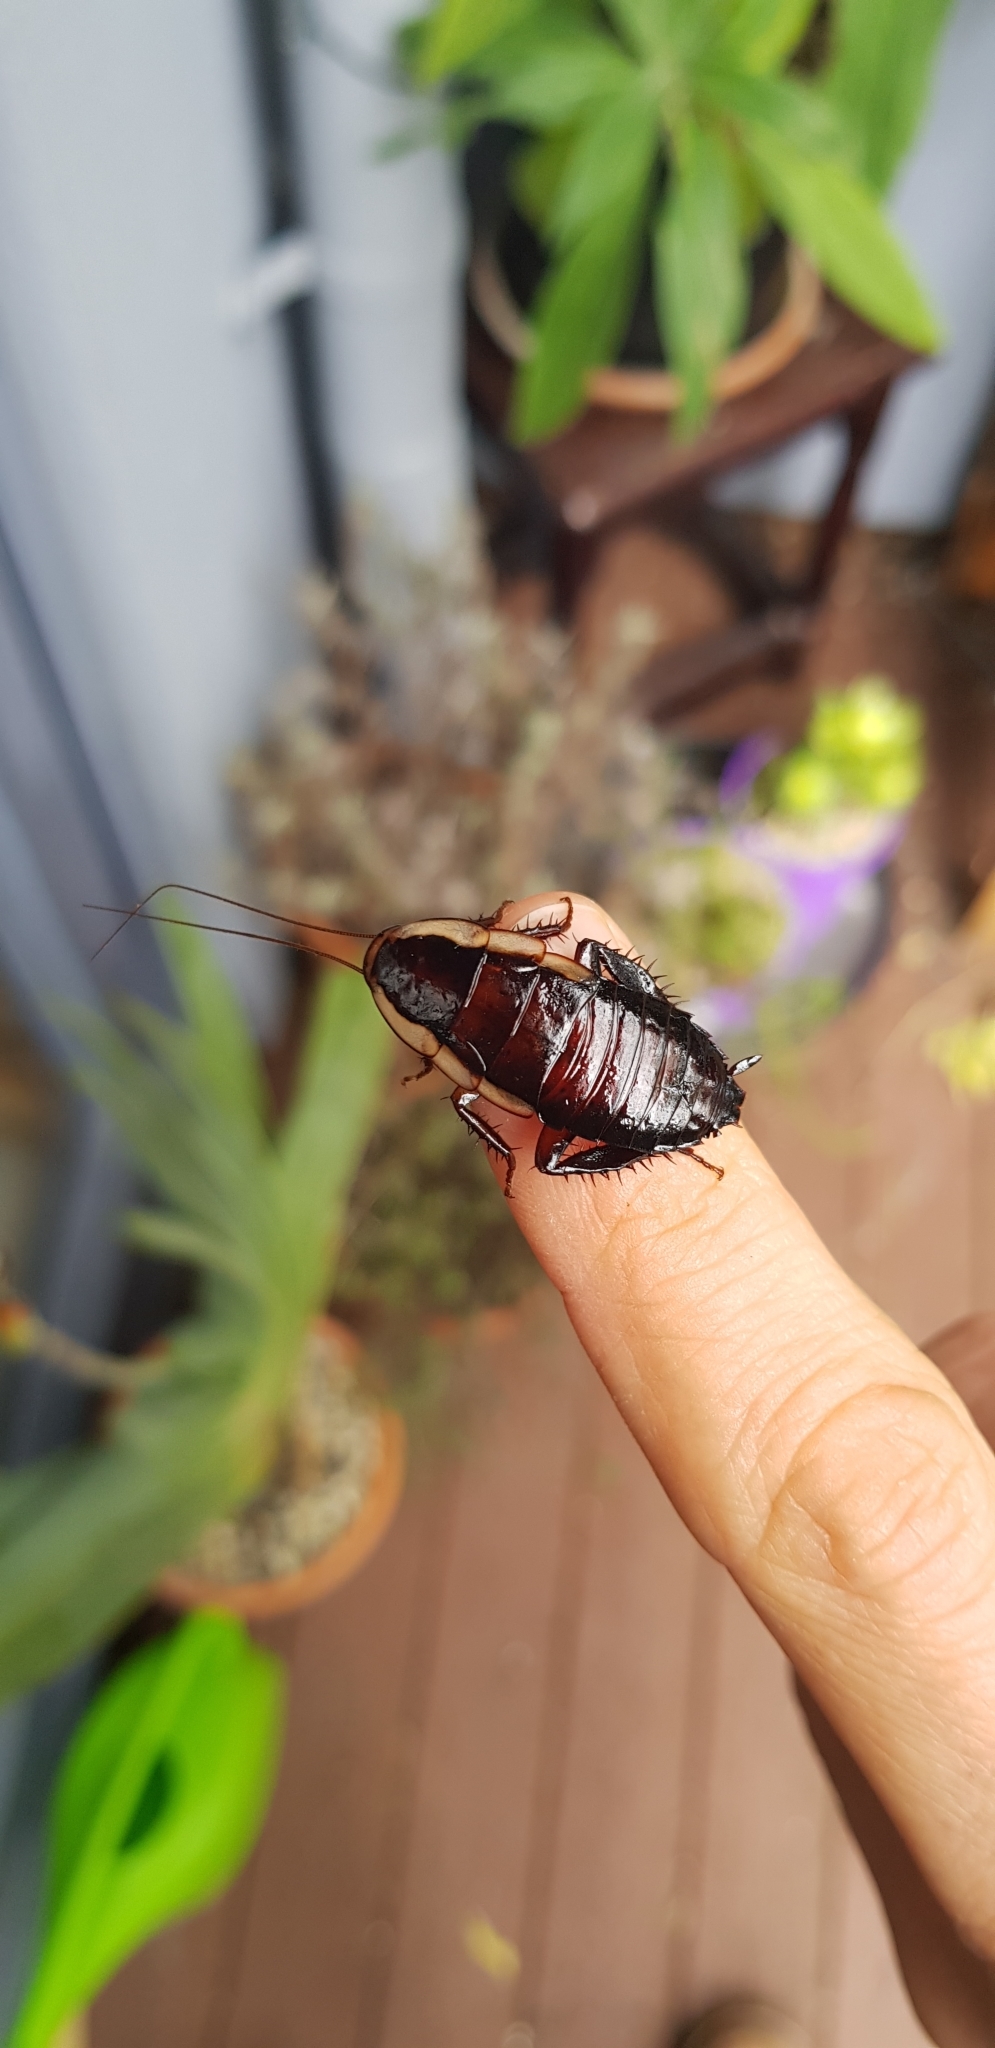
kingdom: Animalia
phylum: Arthropoda
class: Insecta
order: Blattodea
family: Blattidae
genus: Drymaplaneta
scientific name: Drymaplaneta semivitta
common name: Gisborne cockroach
